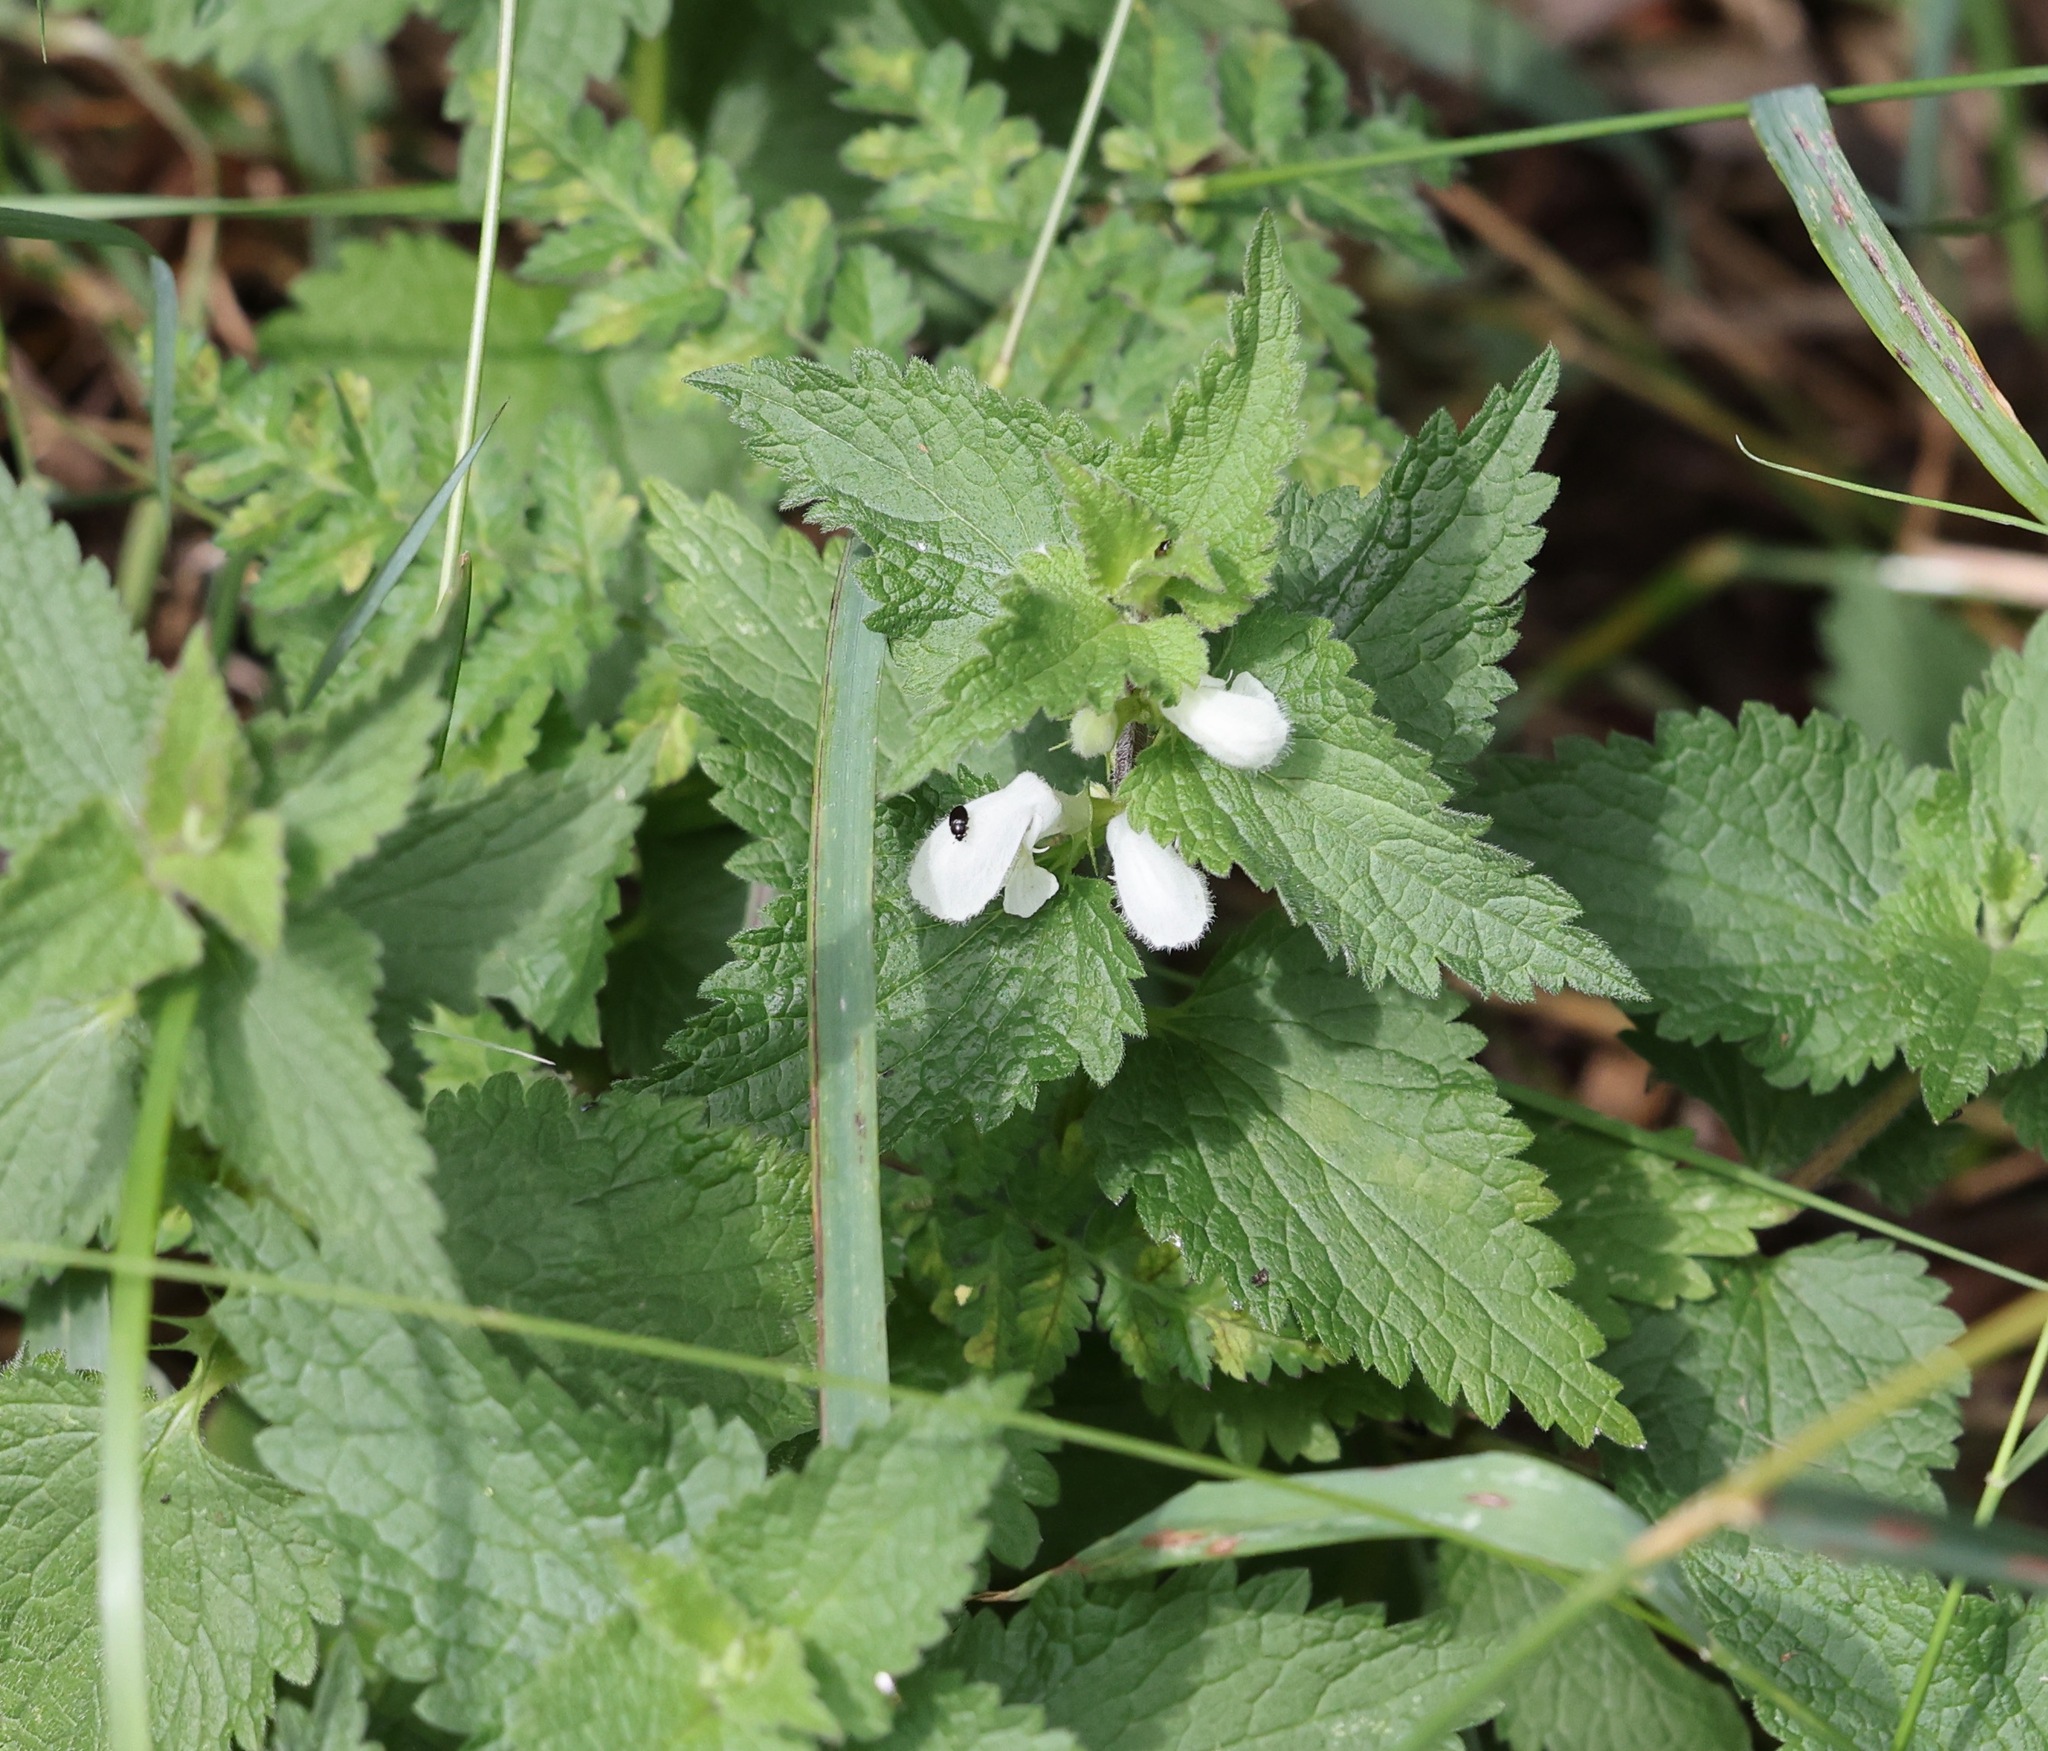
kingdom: Plantae
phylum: Tracheophyta
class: Magnoliopsida
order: Lamiales
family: Lamiaceae
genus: Lamium
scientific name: Lamium album
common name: White dead-nettle
